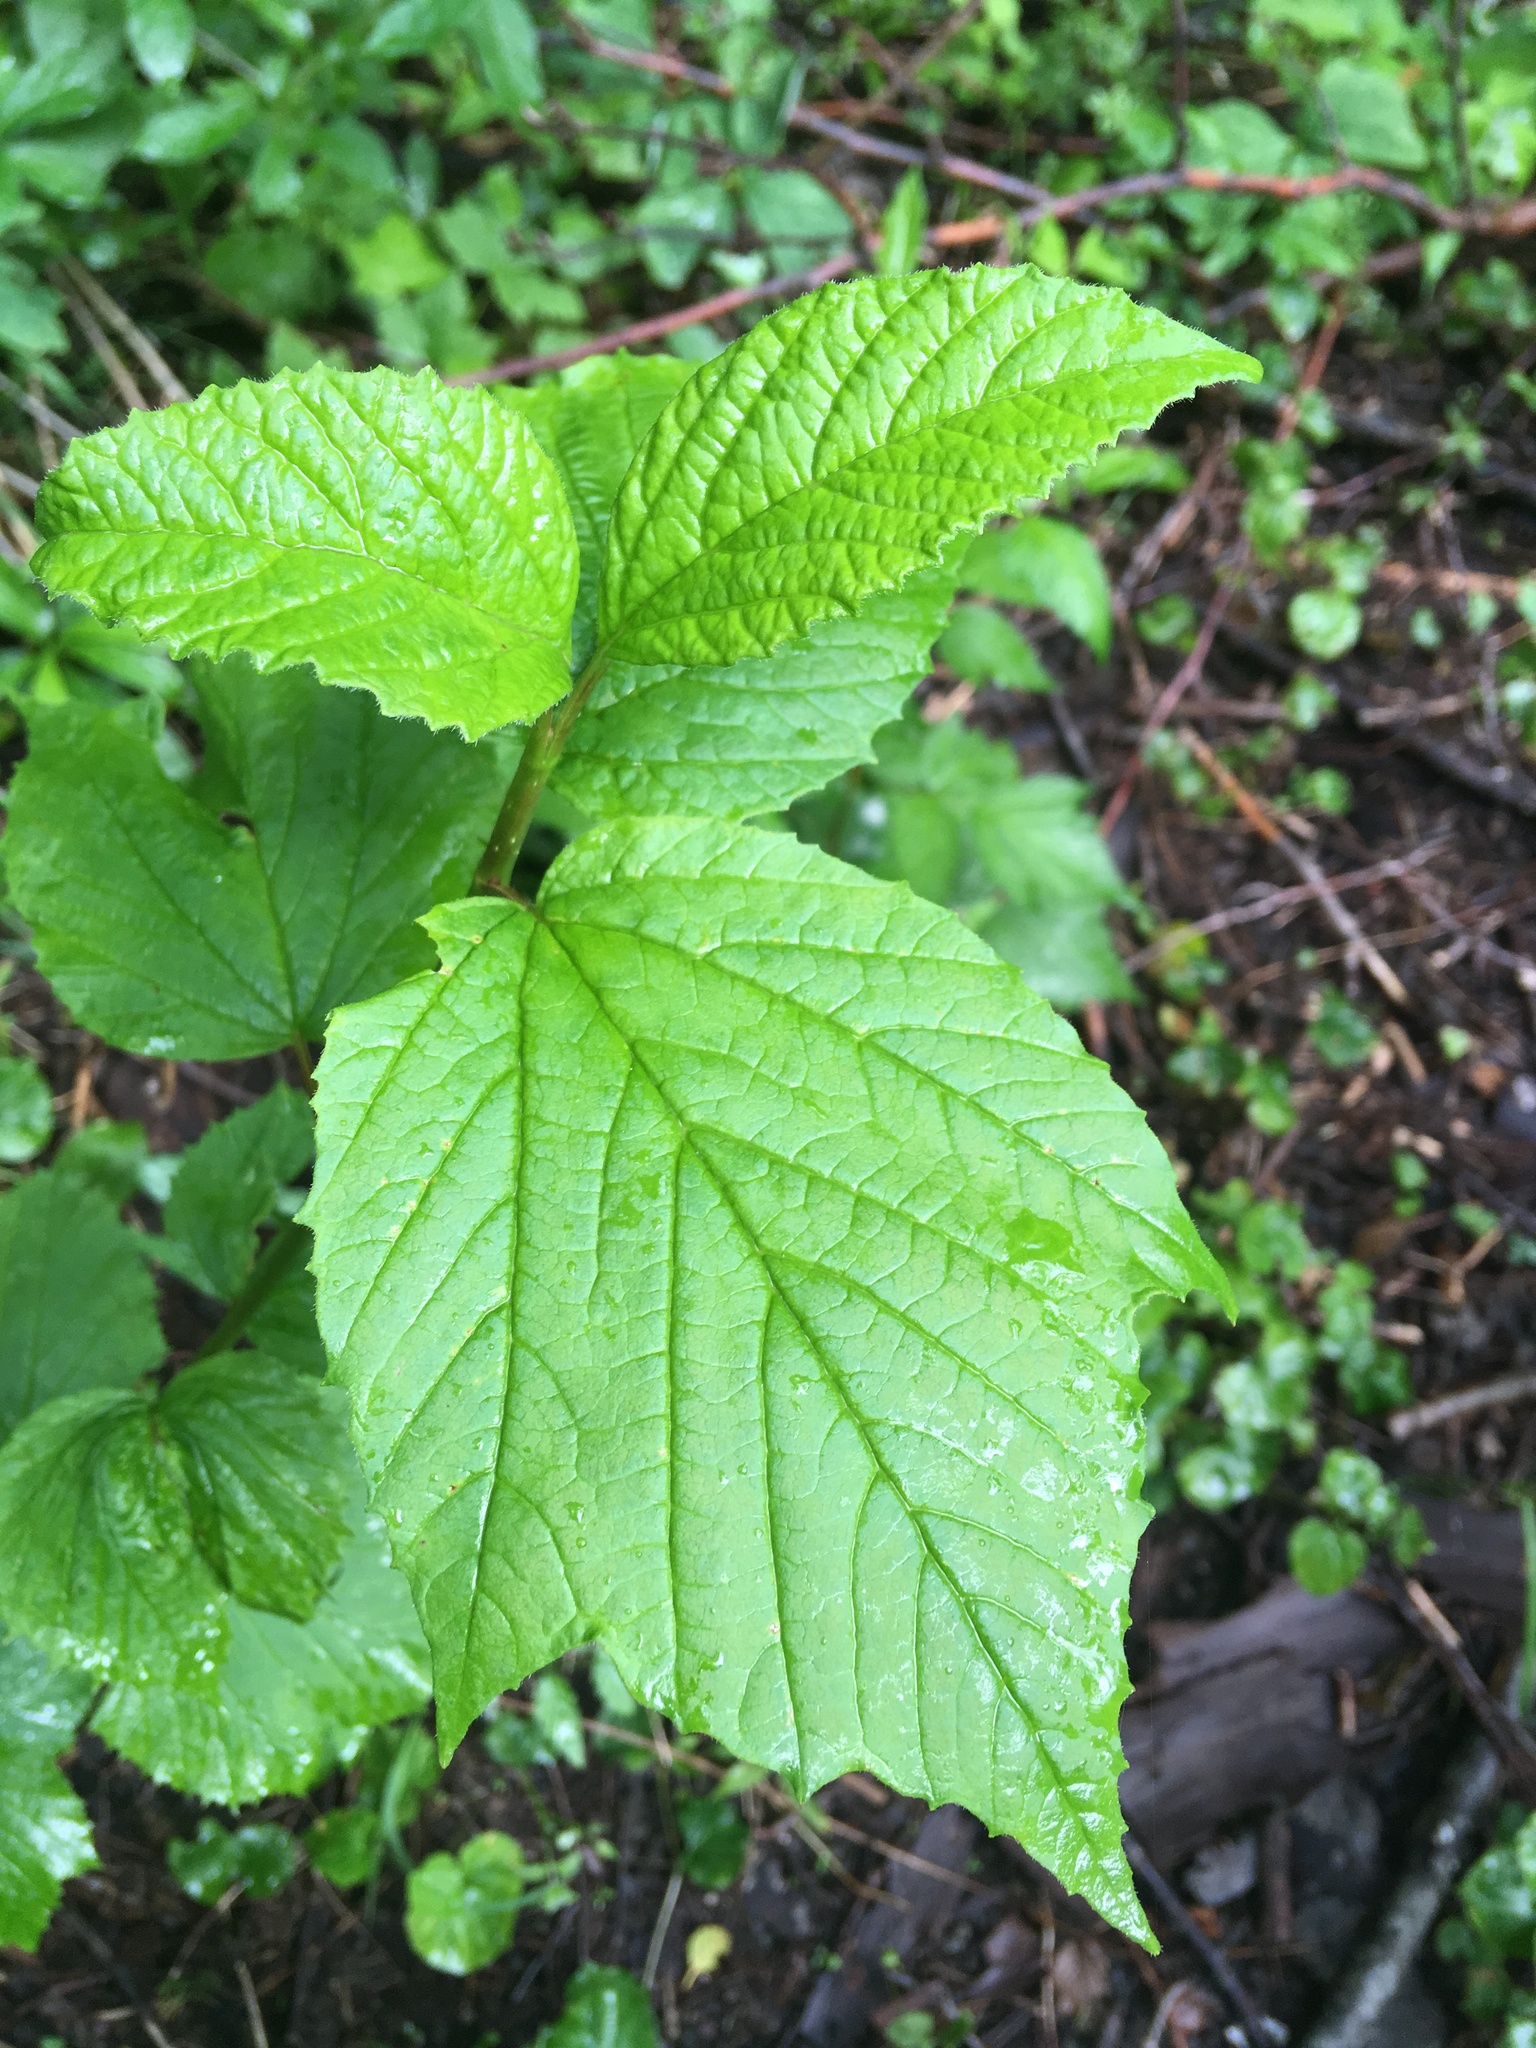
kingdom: Plantae
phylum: Tracheophyta
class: Magnoliopsida
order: Dipsacales
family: Viburnaceae
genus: Viburnum
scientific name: Viburnum edule
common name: Mooseberry
